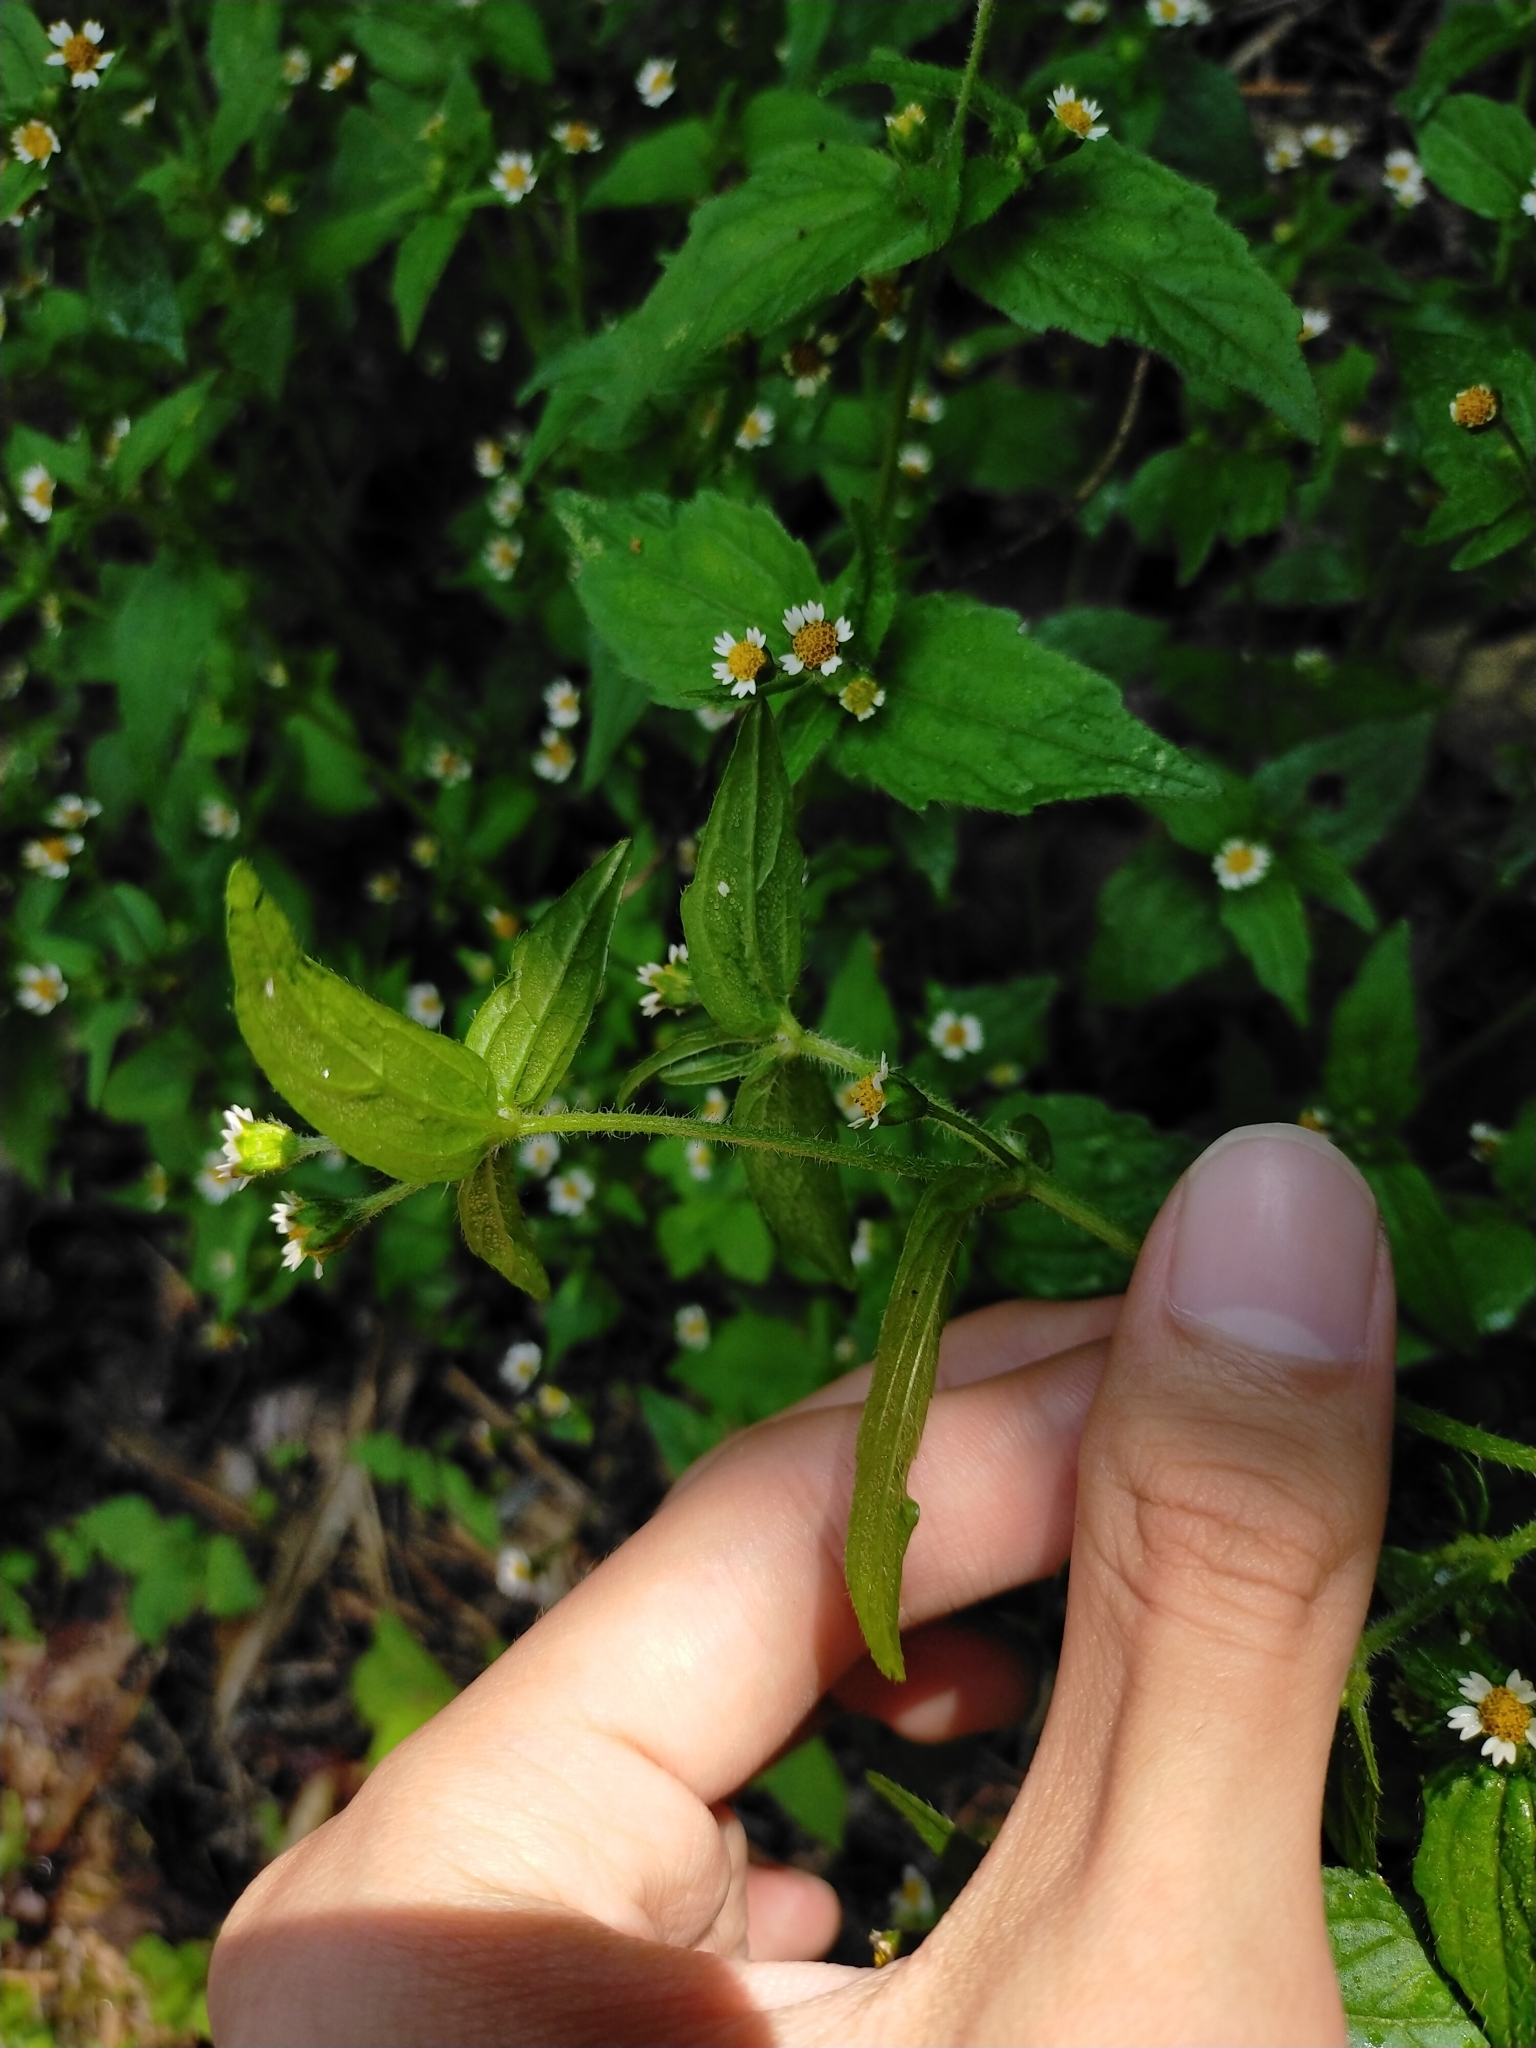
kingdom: Plantae
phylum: Tracheophyta
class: Magnoliopsida
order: Asterales
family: Asteraceae
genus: Galinsoga
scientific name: Galinsoga quadriradiata
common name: Shaggy soldier
